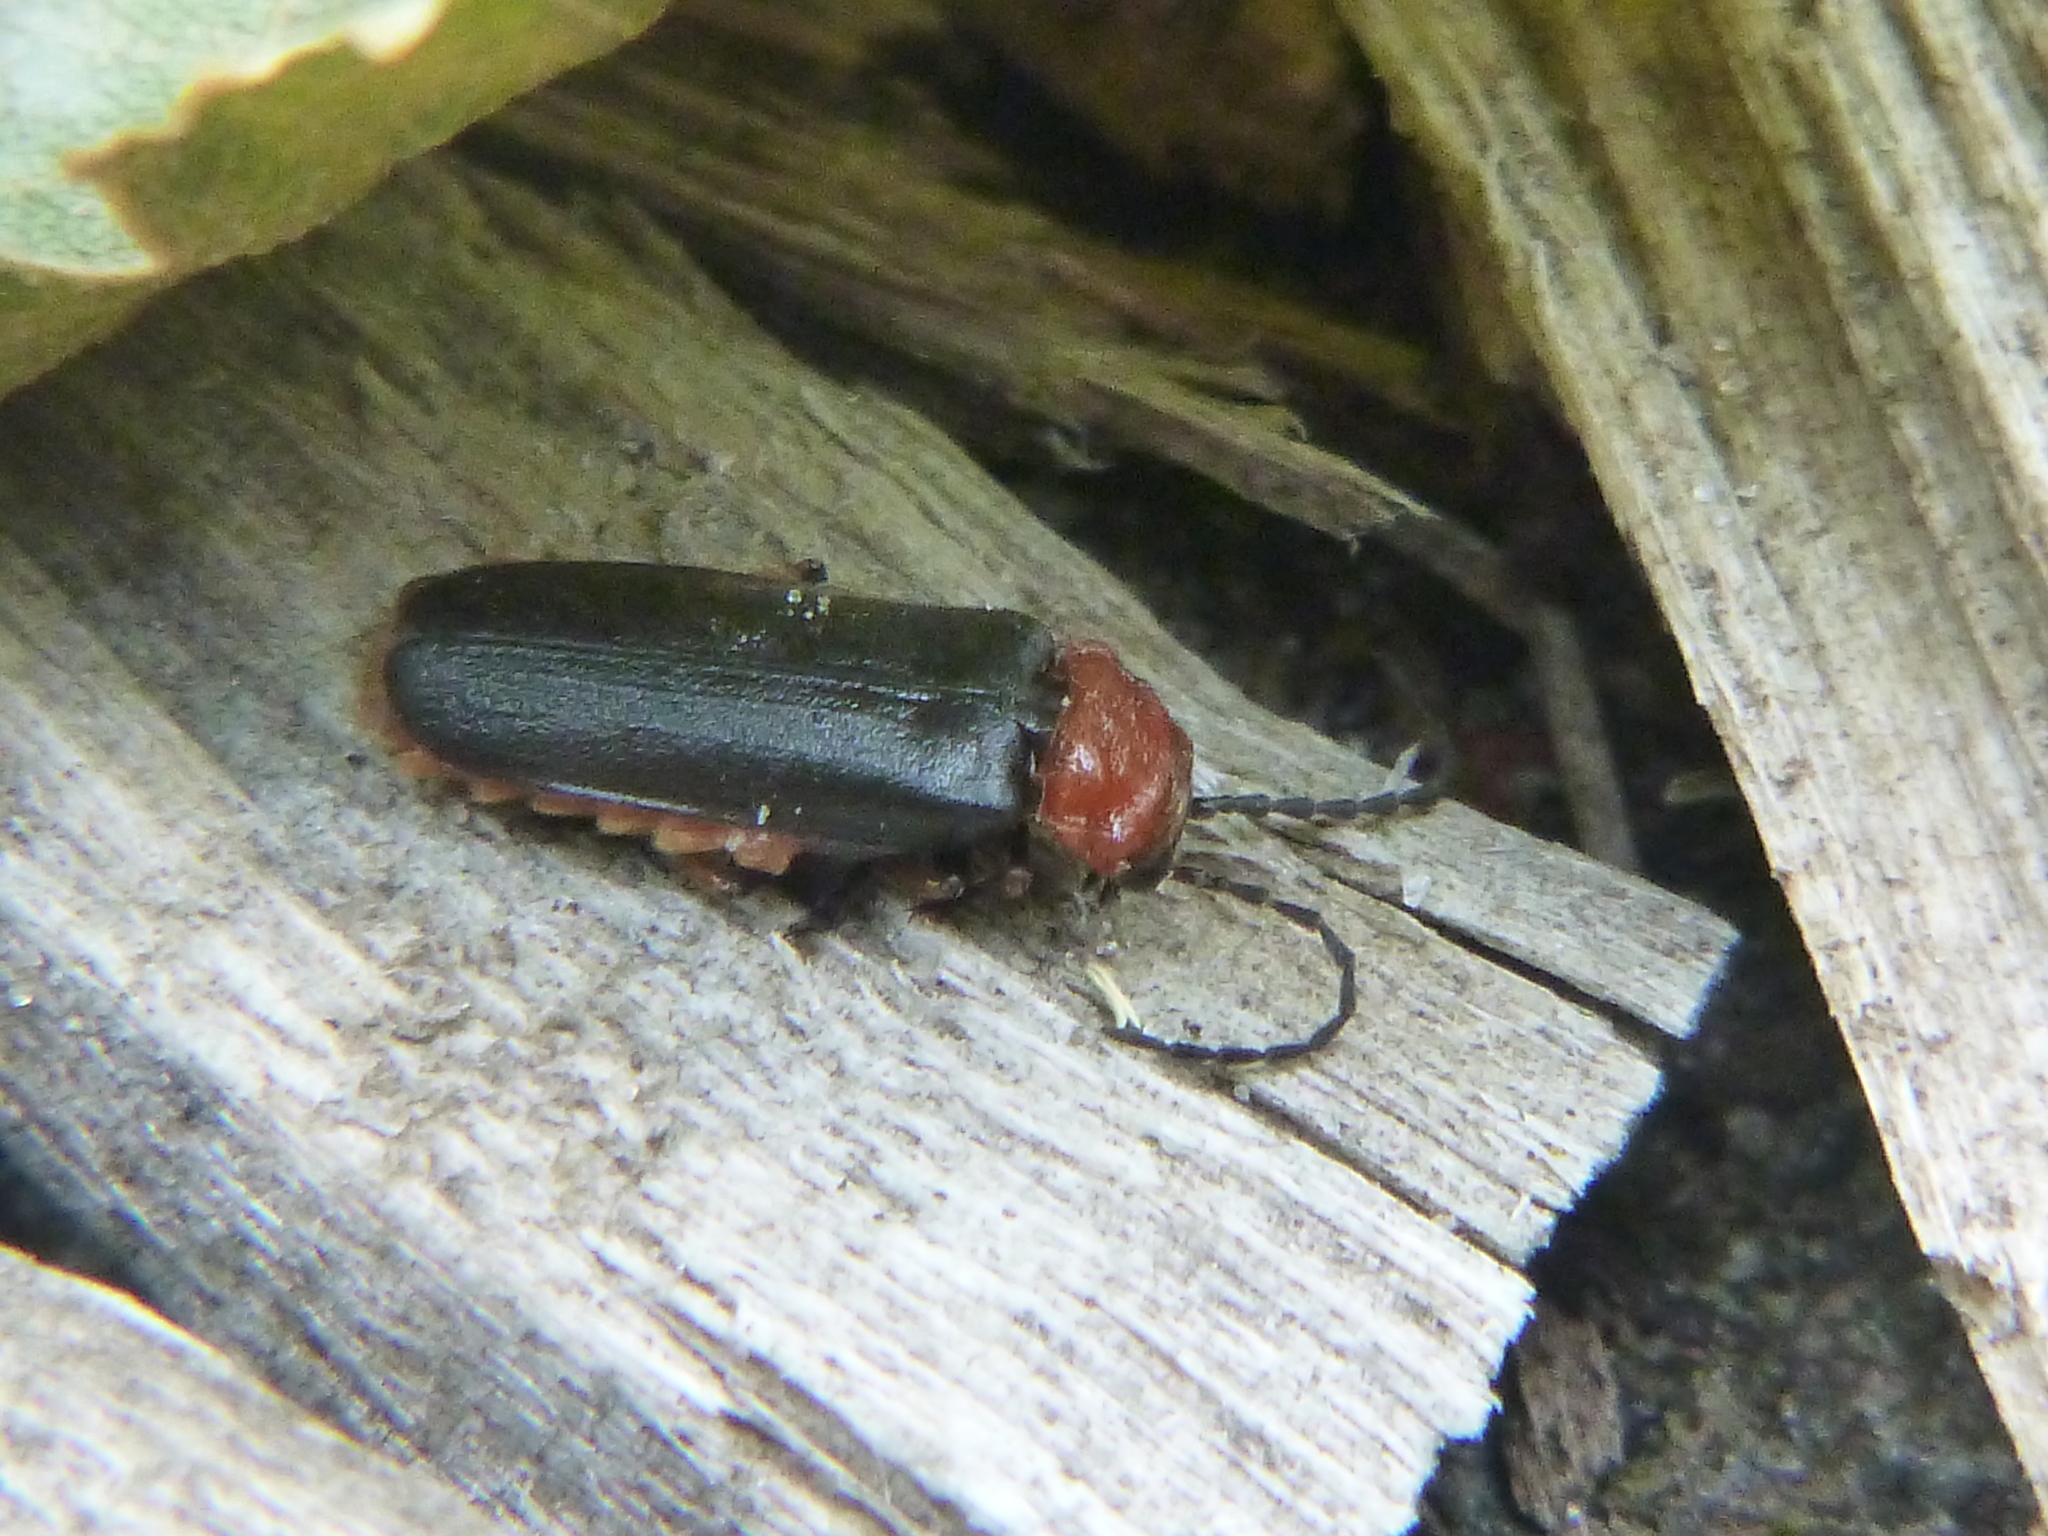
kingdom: Animalia
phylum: Arthropoda
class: Insecta
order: Coleoptera
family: Cantharidae
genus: Crudosilis
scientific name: Crudosilis ruficollis
